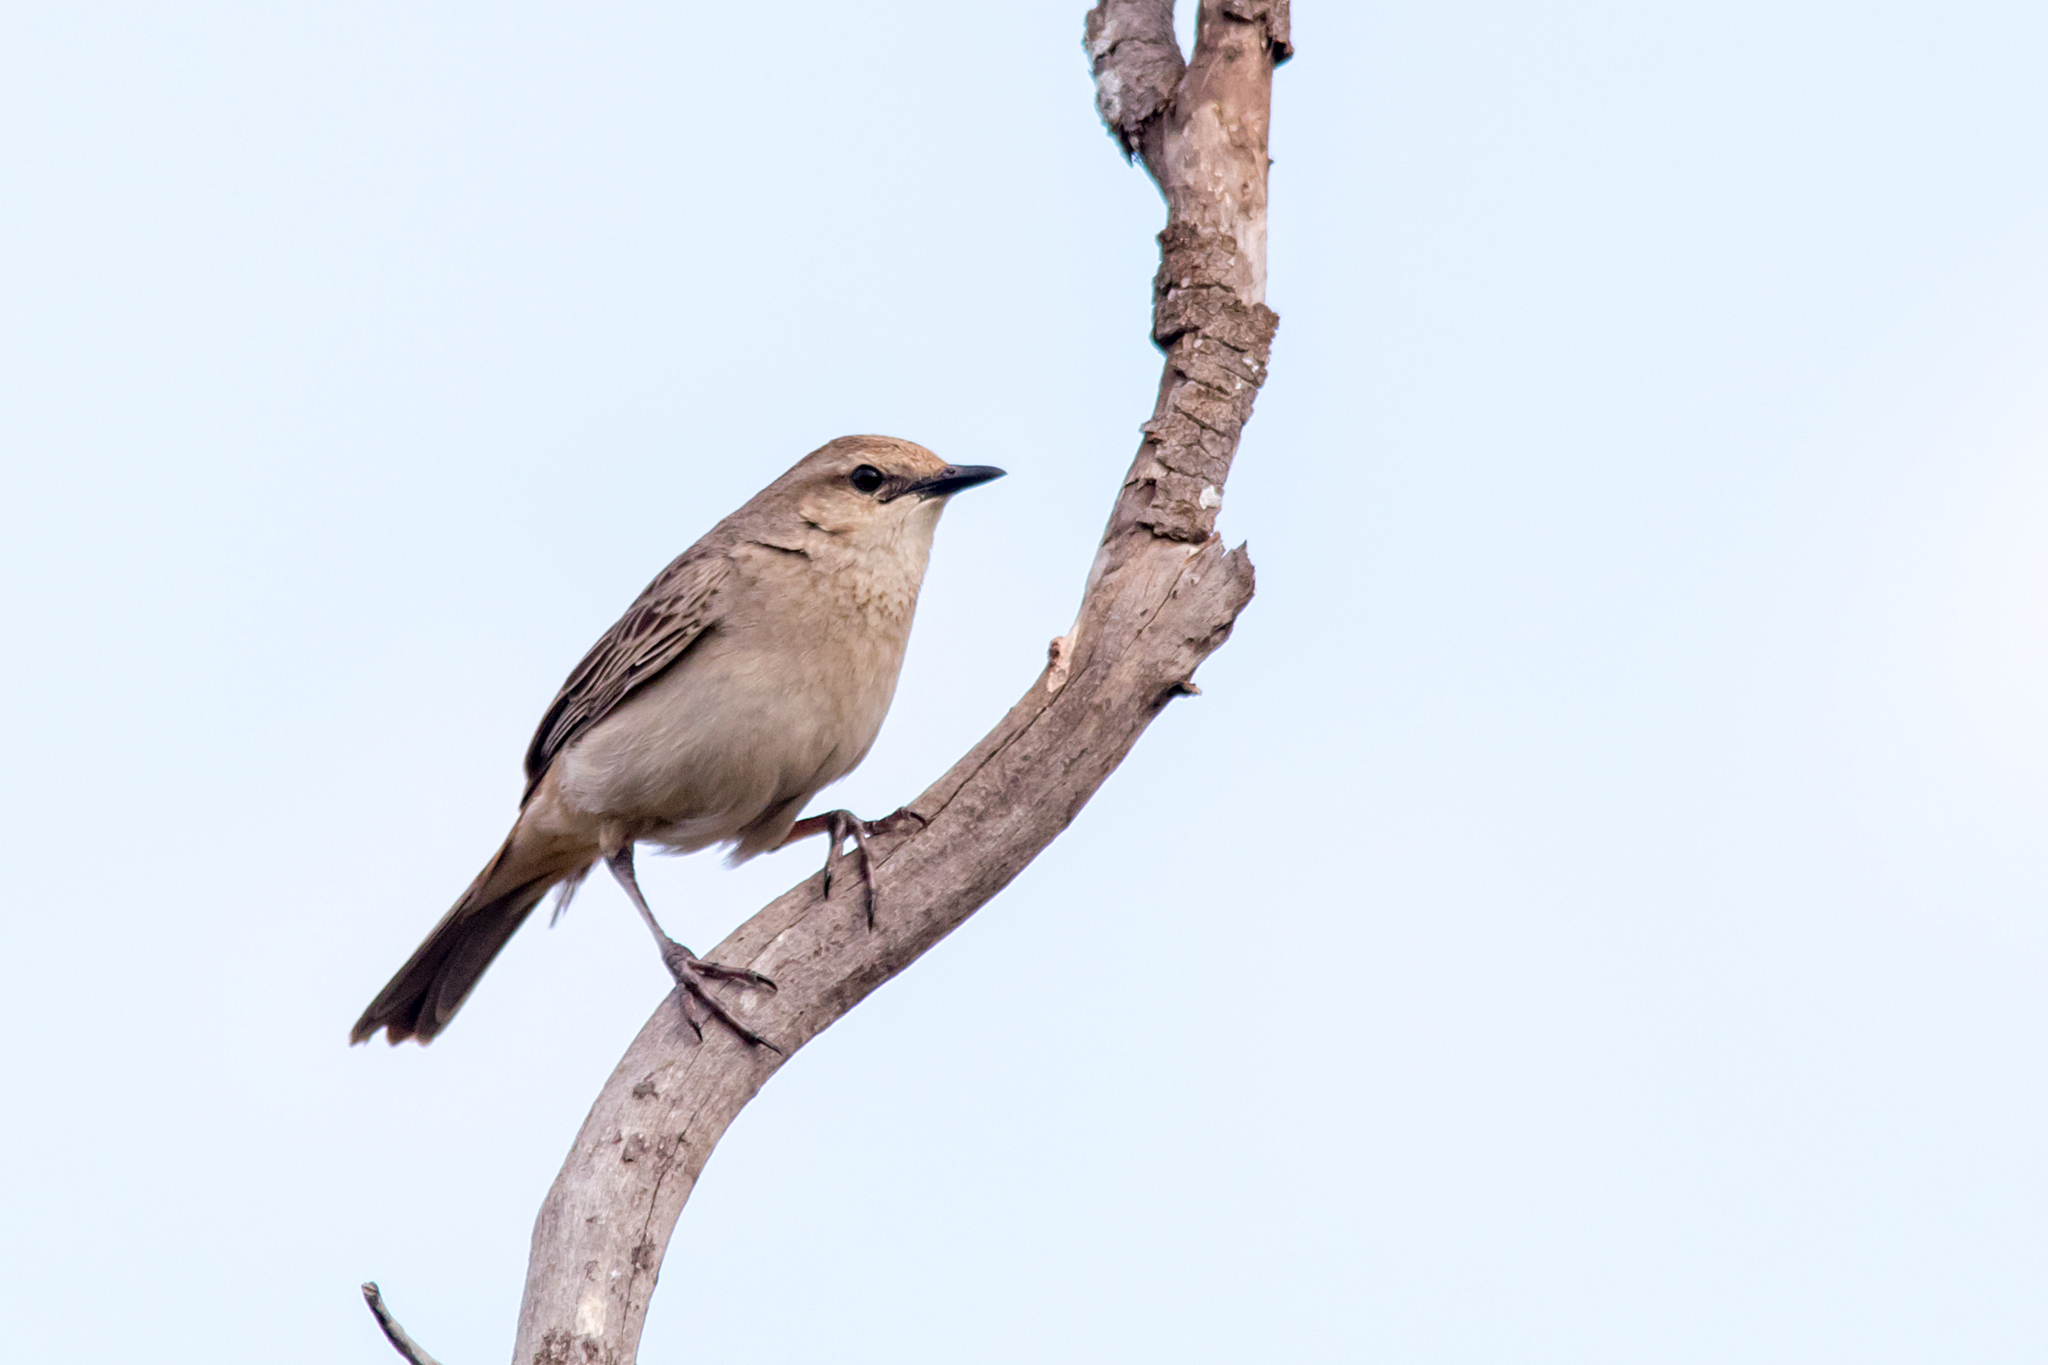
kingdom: Animalia
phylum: Chordata
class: Aves
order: Passeriformes
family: Locustellidae
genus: Megalurus
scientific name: Megalurus mathewsi
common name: Rufous songlark
